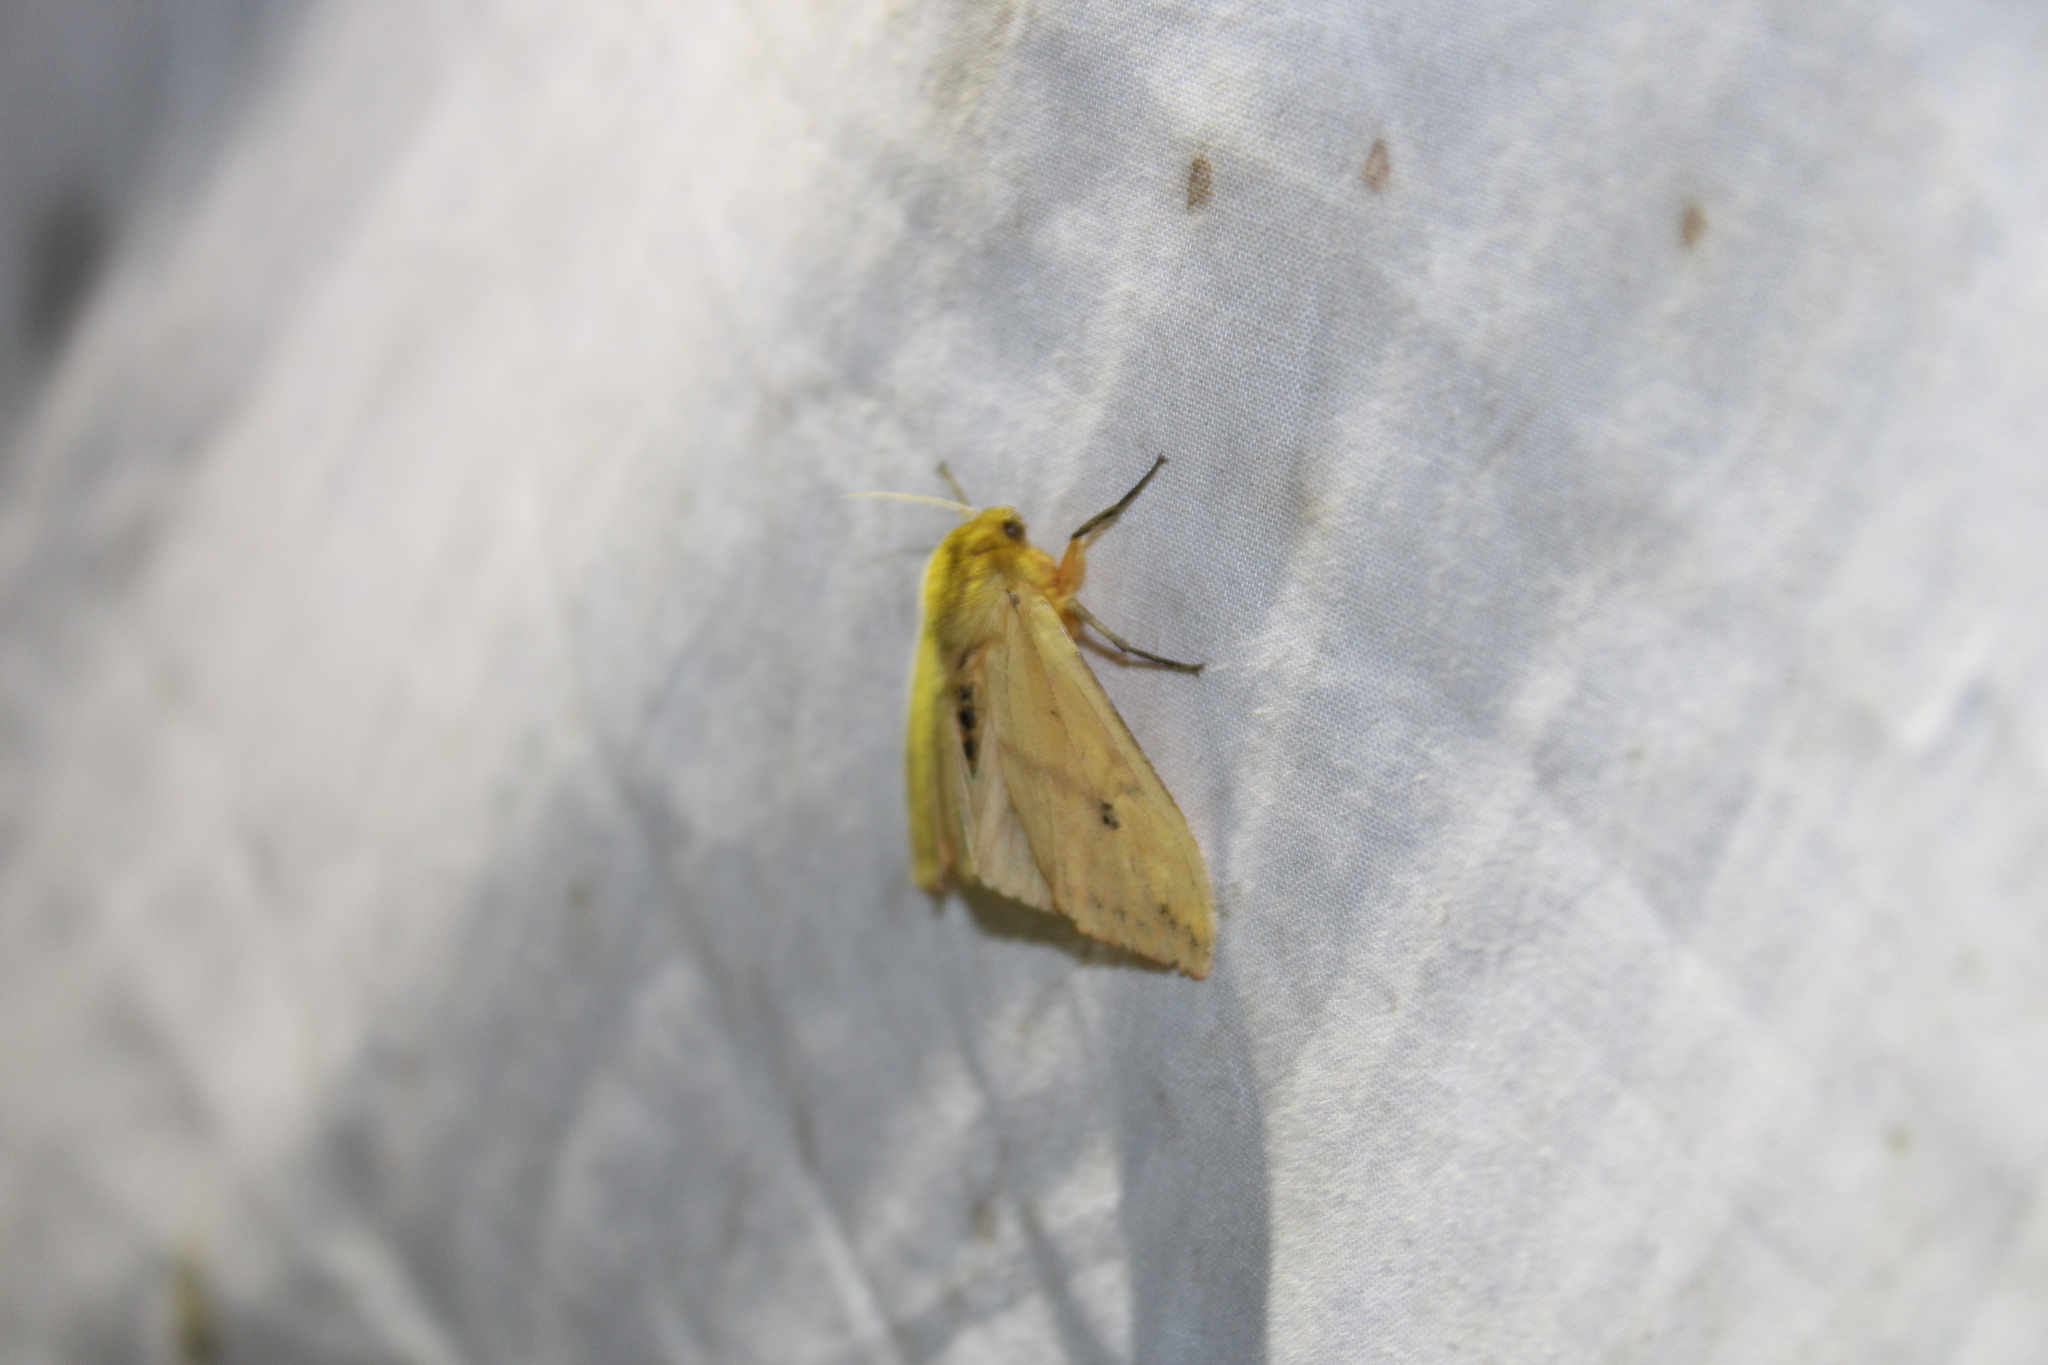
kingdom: Animalia
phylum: Arthropoda
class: Insecta
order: Lepidoptera
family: Erebidae
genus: Pyrrharctia
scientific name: Pyrrharctia isabella
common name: Isabella tiger moth
